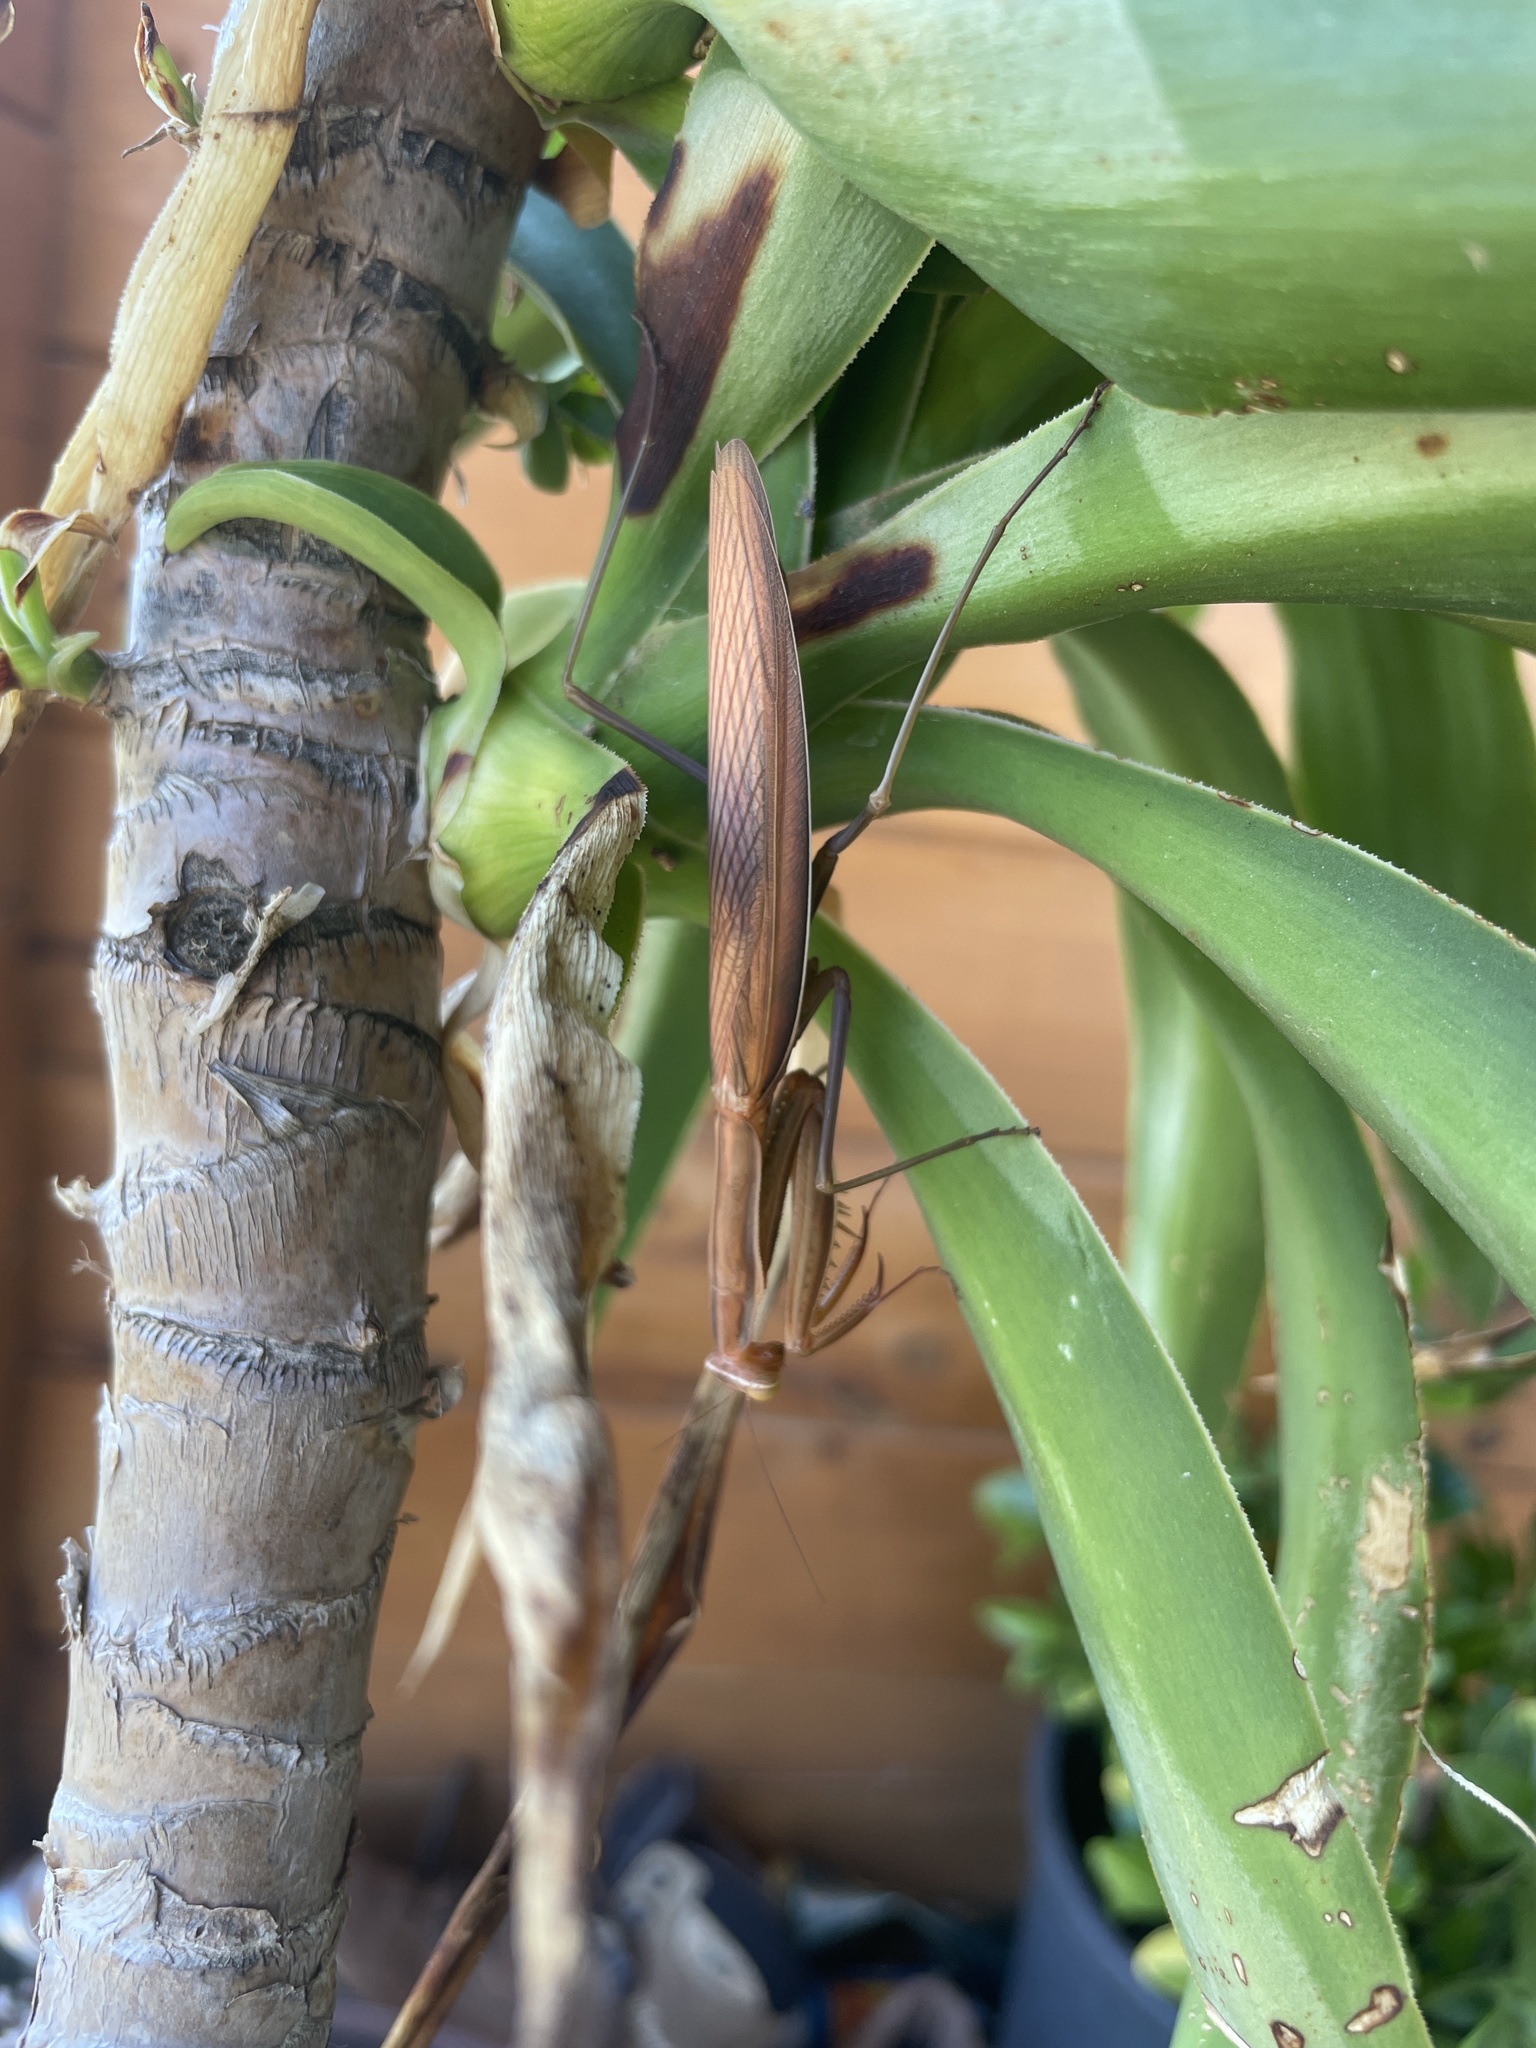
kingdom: Animalia
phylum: Arthropoda
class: Insecta
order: Mantodea
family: Mantidae
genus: Mantis
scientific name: Mantis religiosa
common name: Praying mantis
